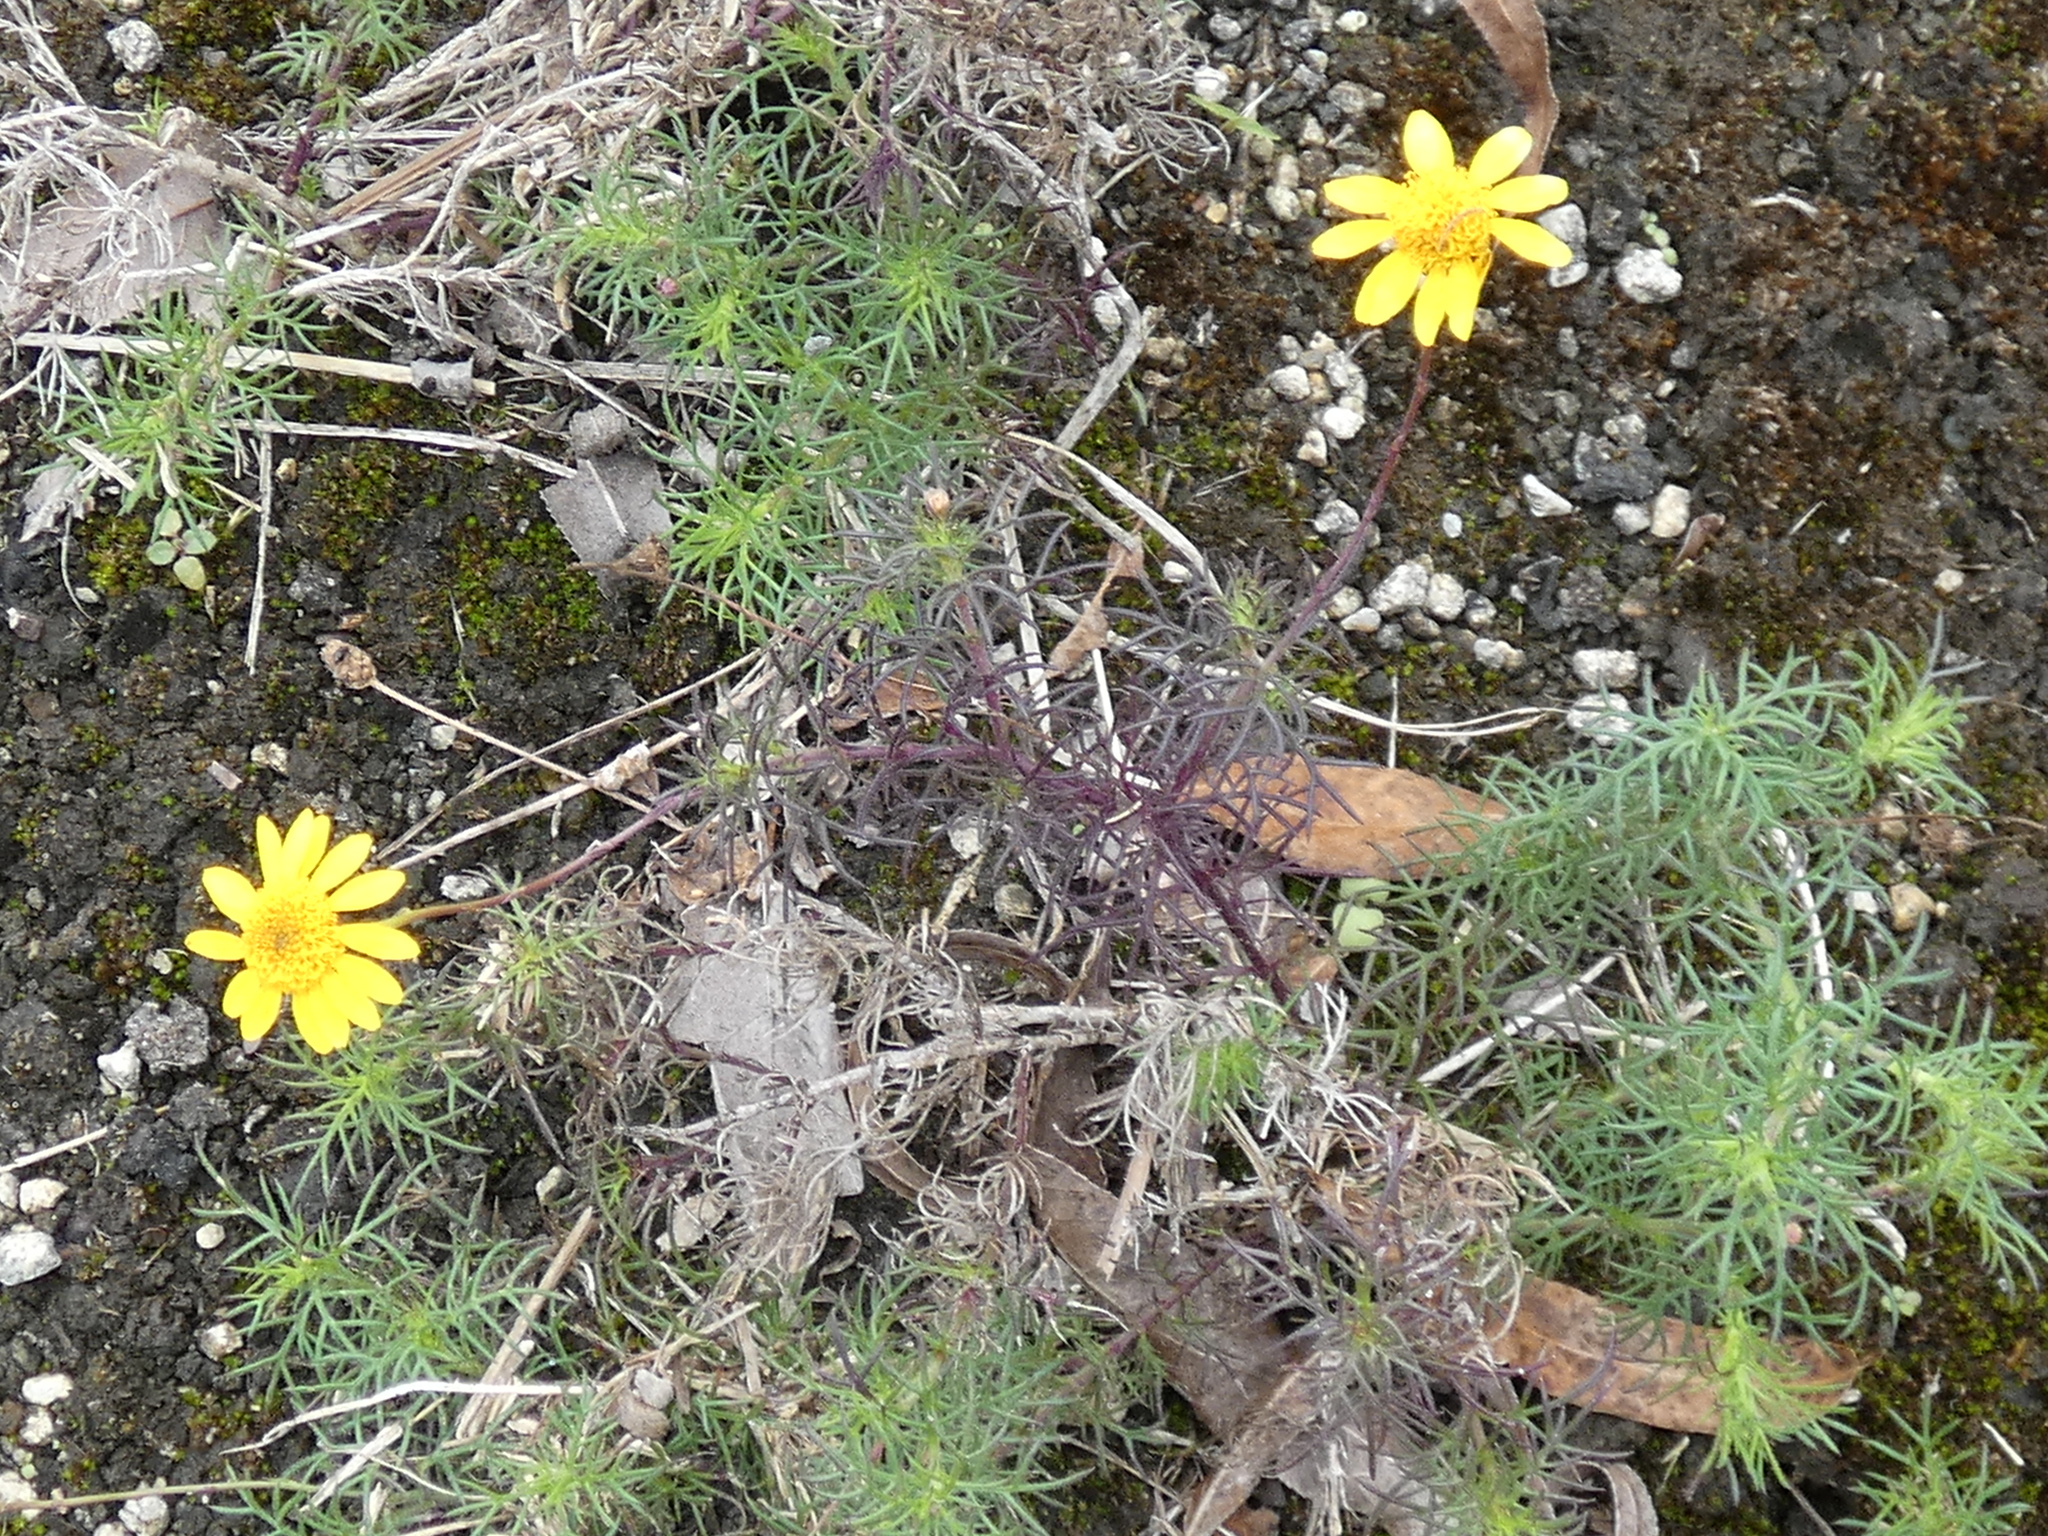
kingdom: Plantae
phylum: Tracheophyta
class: Magnoliopsida
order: Asterales
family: Asteraceae
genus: Thymophylla
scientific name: Thymophylla tenuiloba
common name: Dahlberg's daisy
